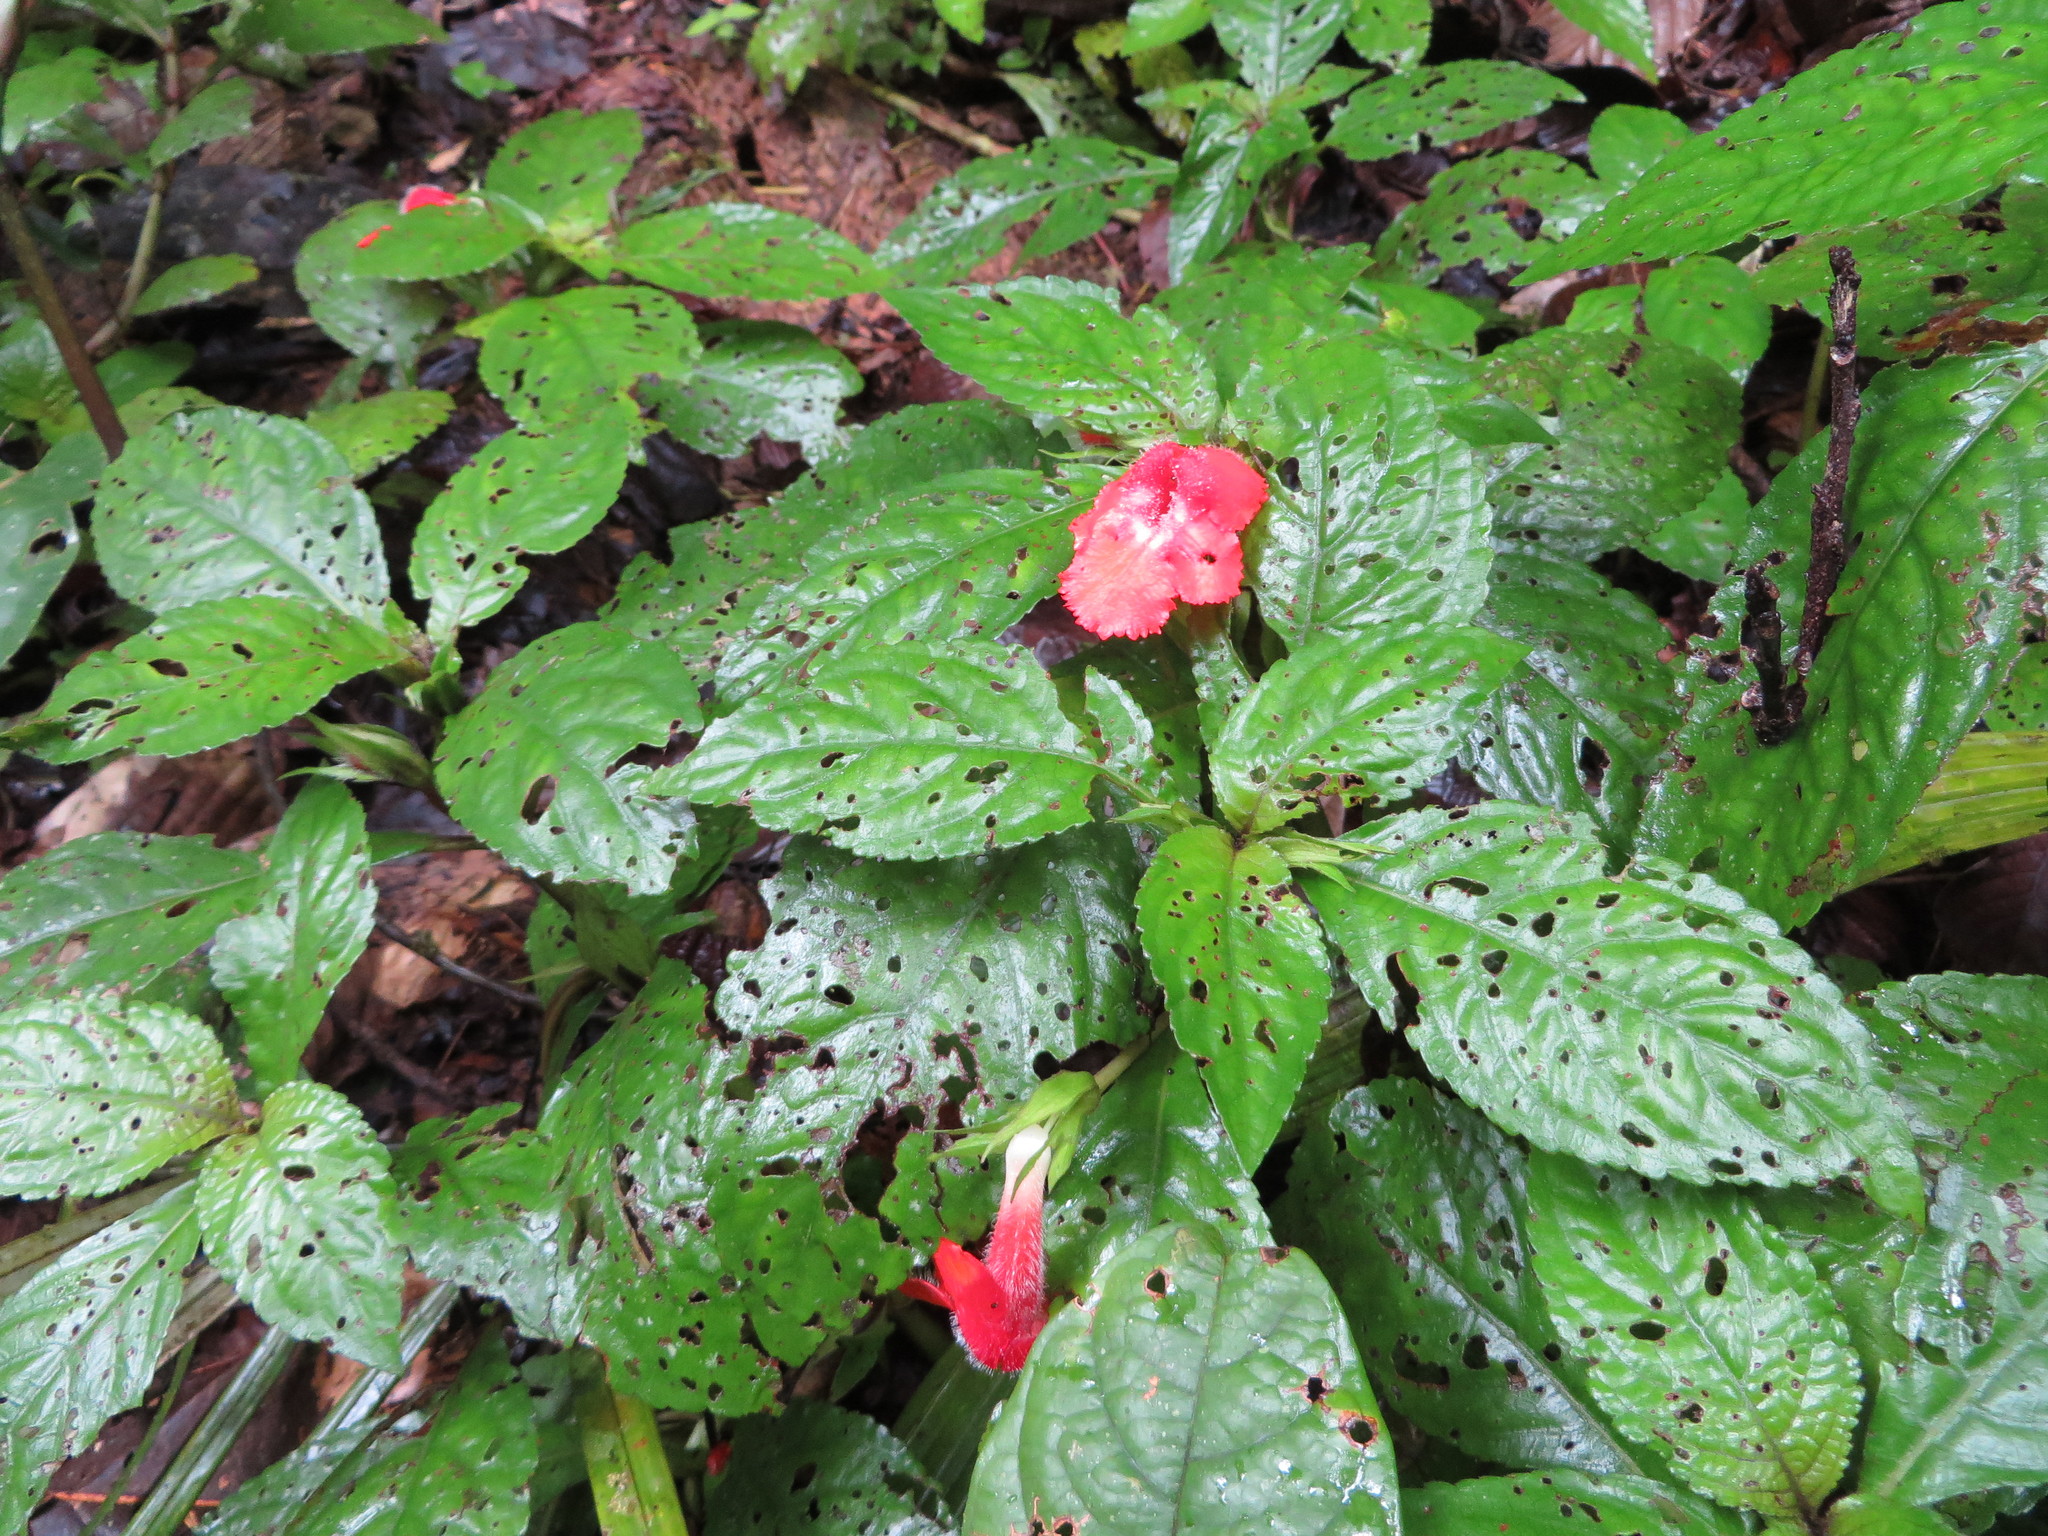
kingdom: Plantae
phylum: Tracheophyta
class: Magnoliopsida
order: Lamiales
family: Gesneriaceae
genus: Nautilocalyx
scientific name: Nautilocalyx erytranthus
